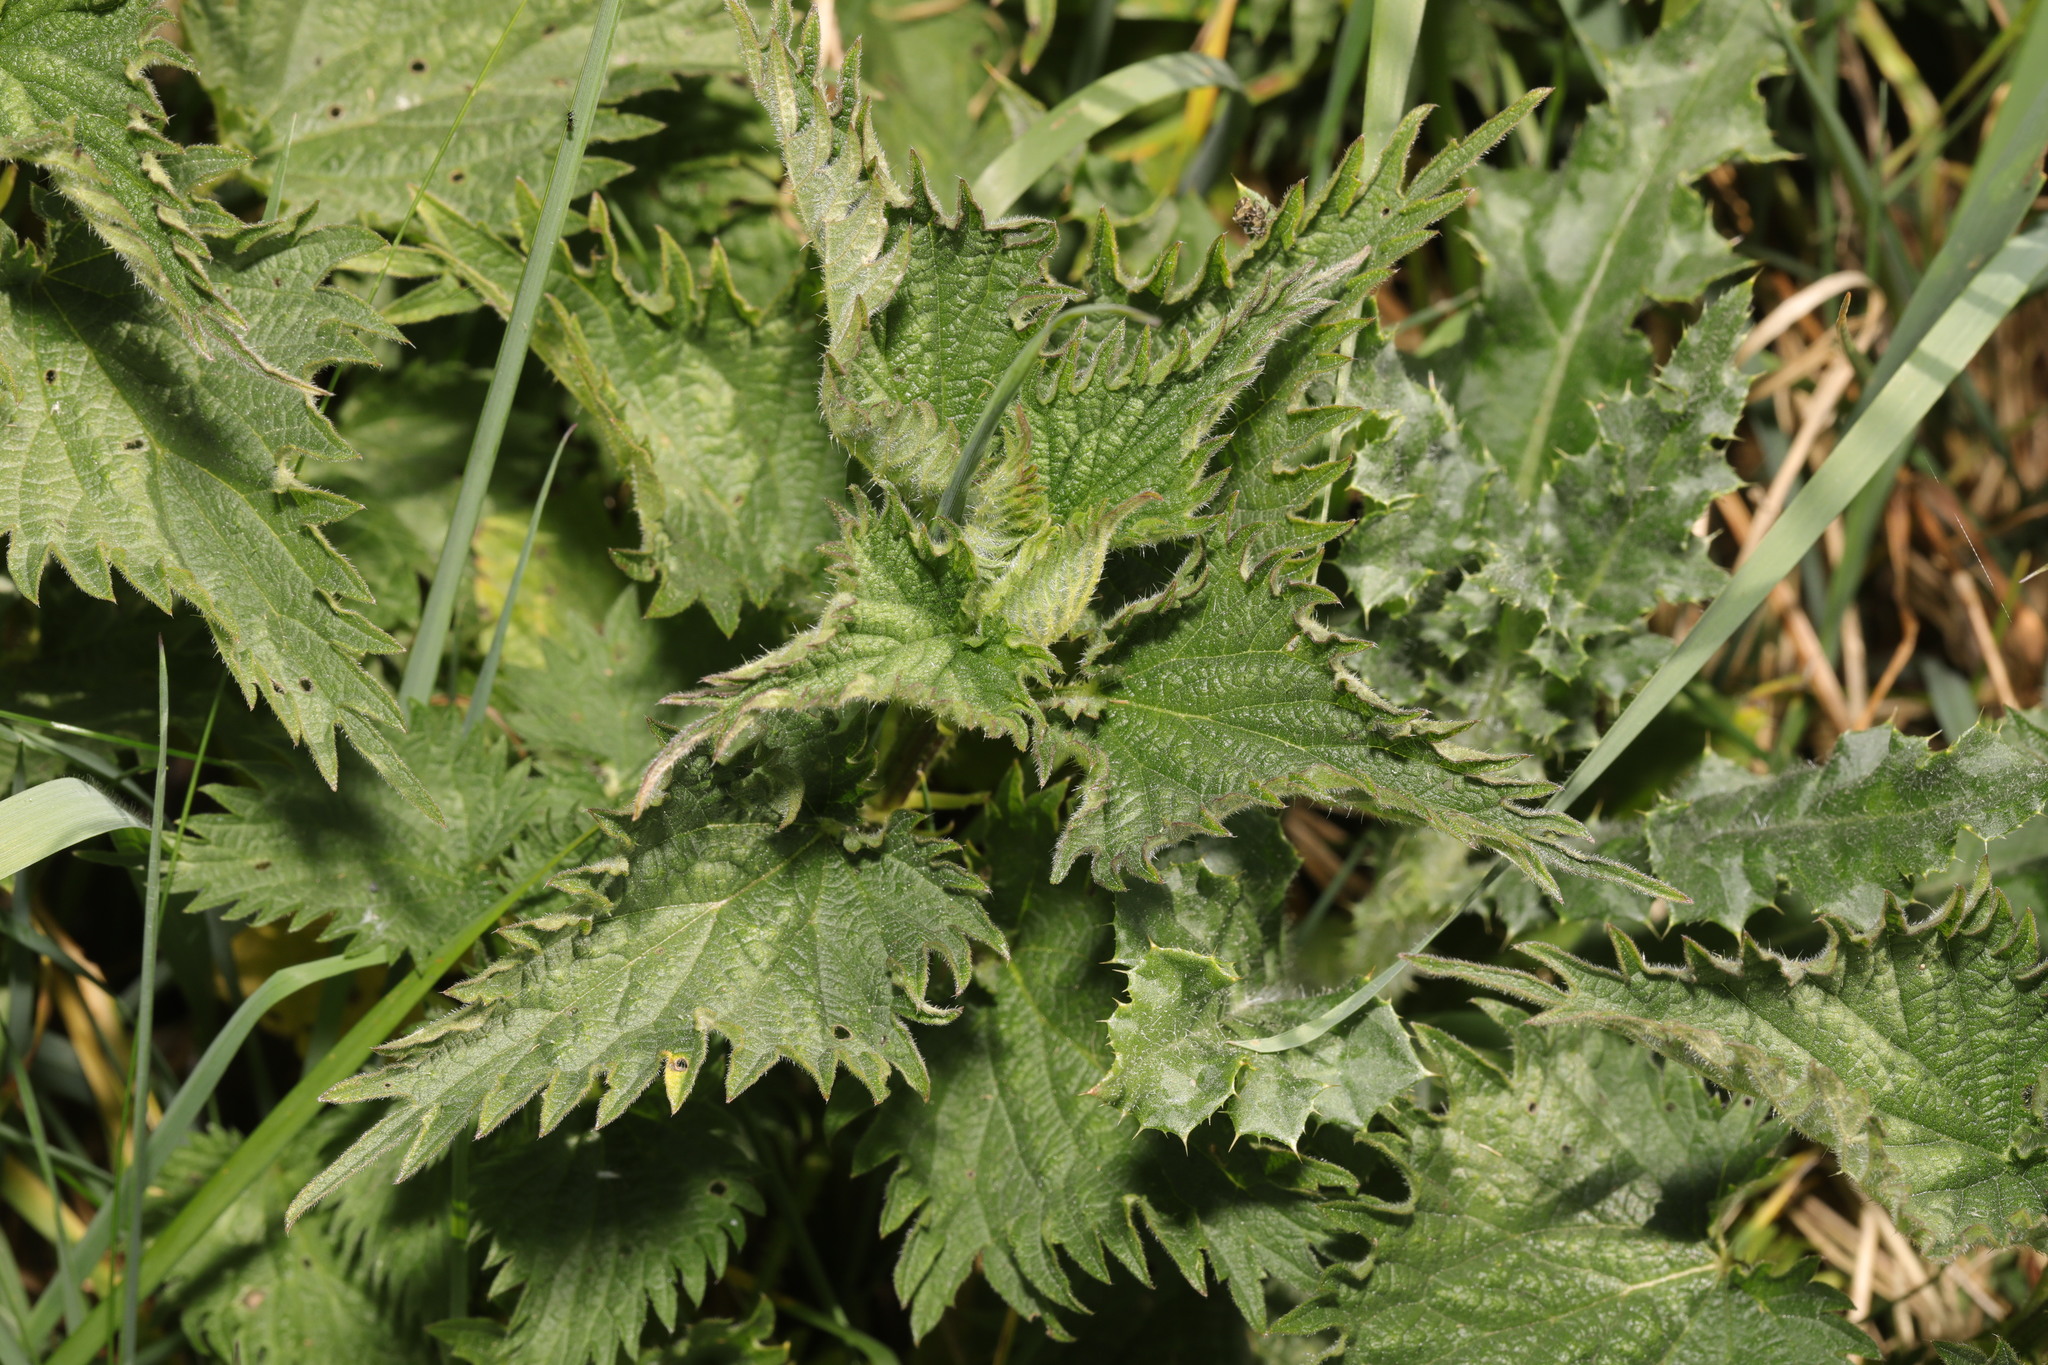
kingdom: Plantae
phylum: Tracheophyta
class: Magnoliopsida
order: Rosales
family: Urticaceae
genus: Urtica
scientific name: Urtica dioica
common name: Common nettle
